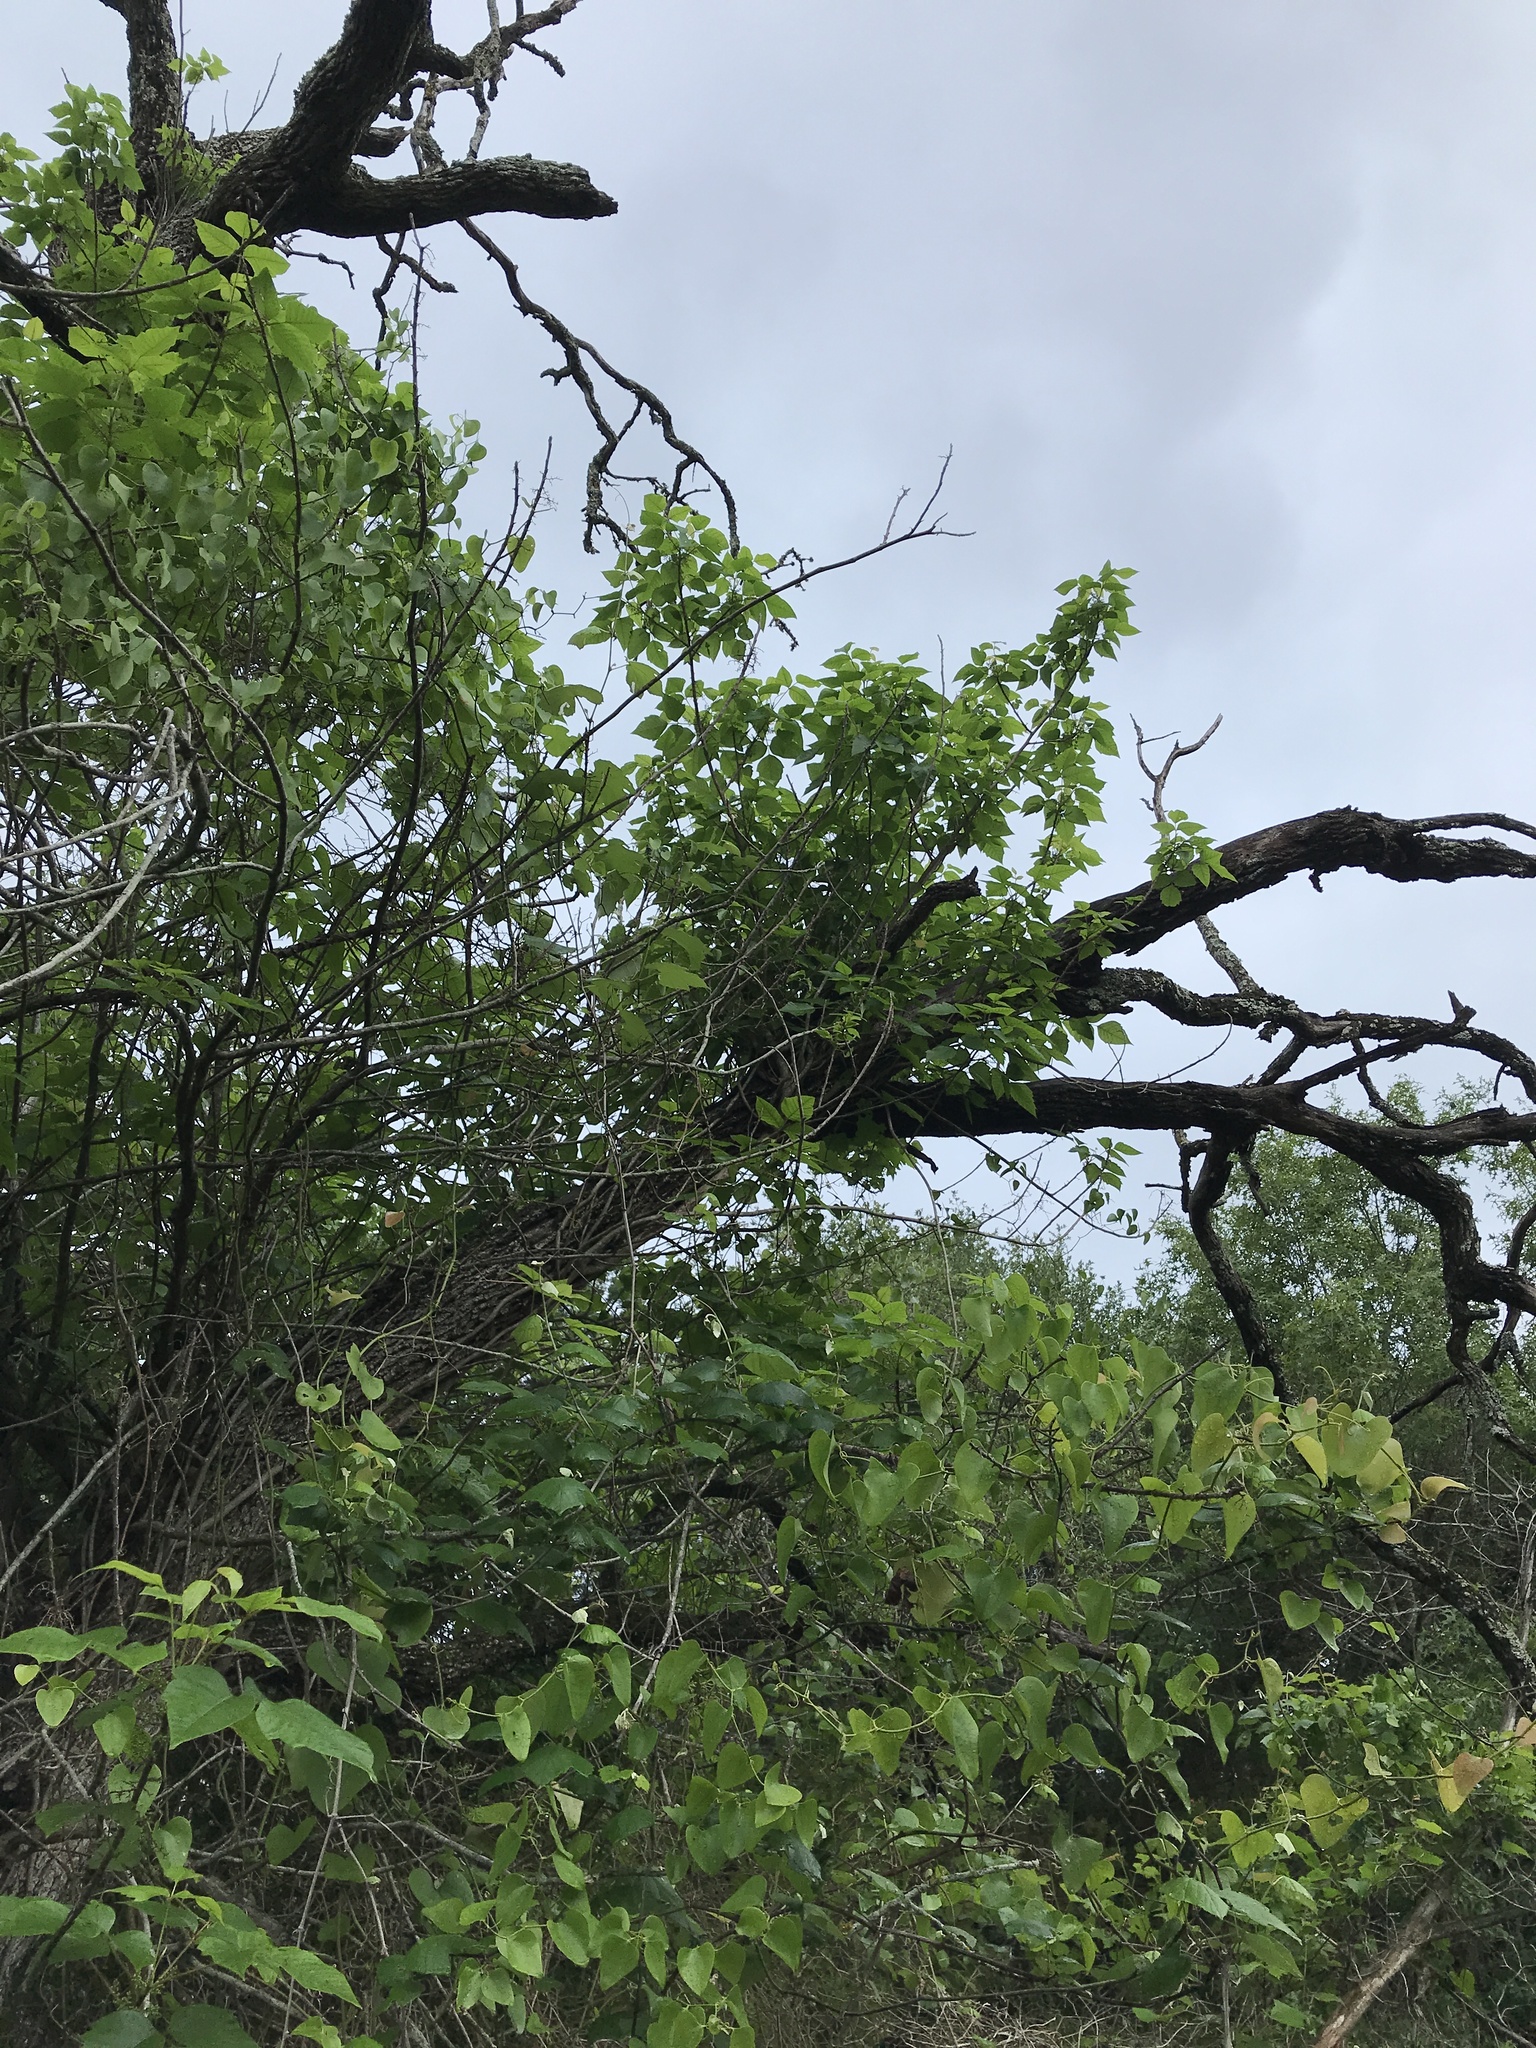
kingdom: Plantae
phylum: Tracheophyta
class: Magnoliopsida
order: Sapindales
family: Anacardiaceae
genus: Toxicodendron
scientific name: Toxicodendron radicans
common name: Poison ivy
